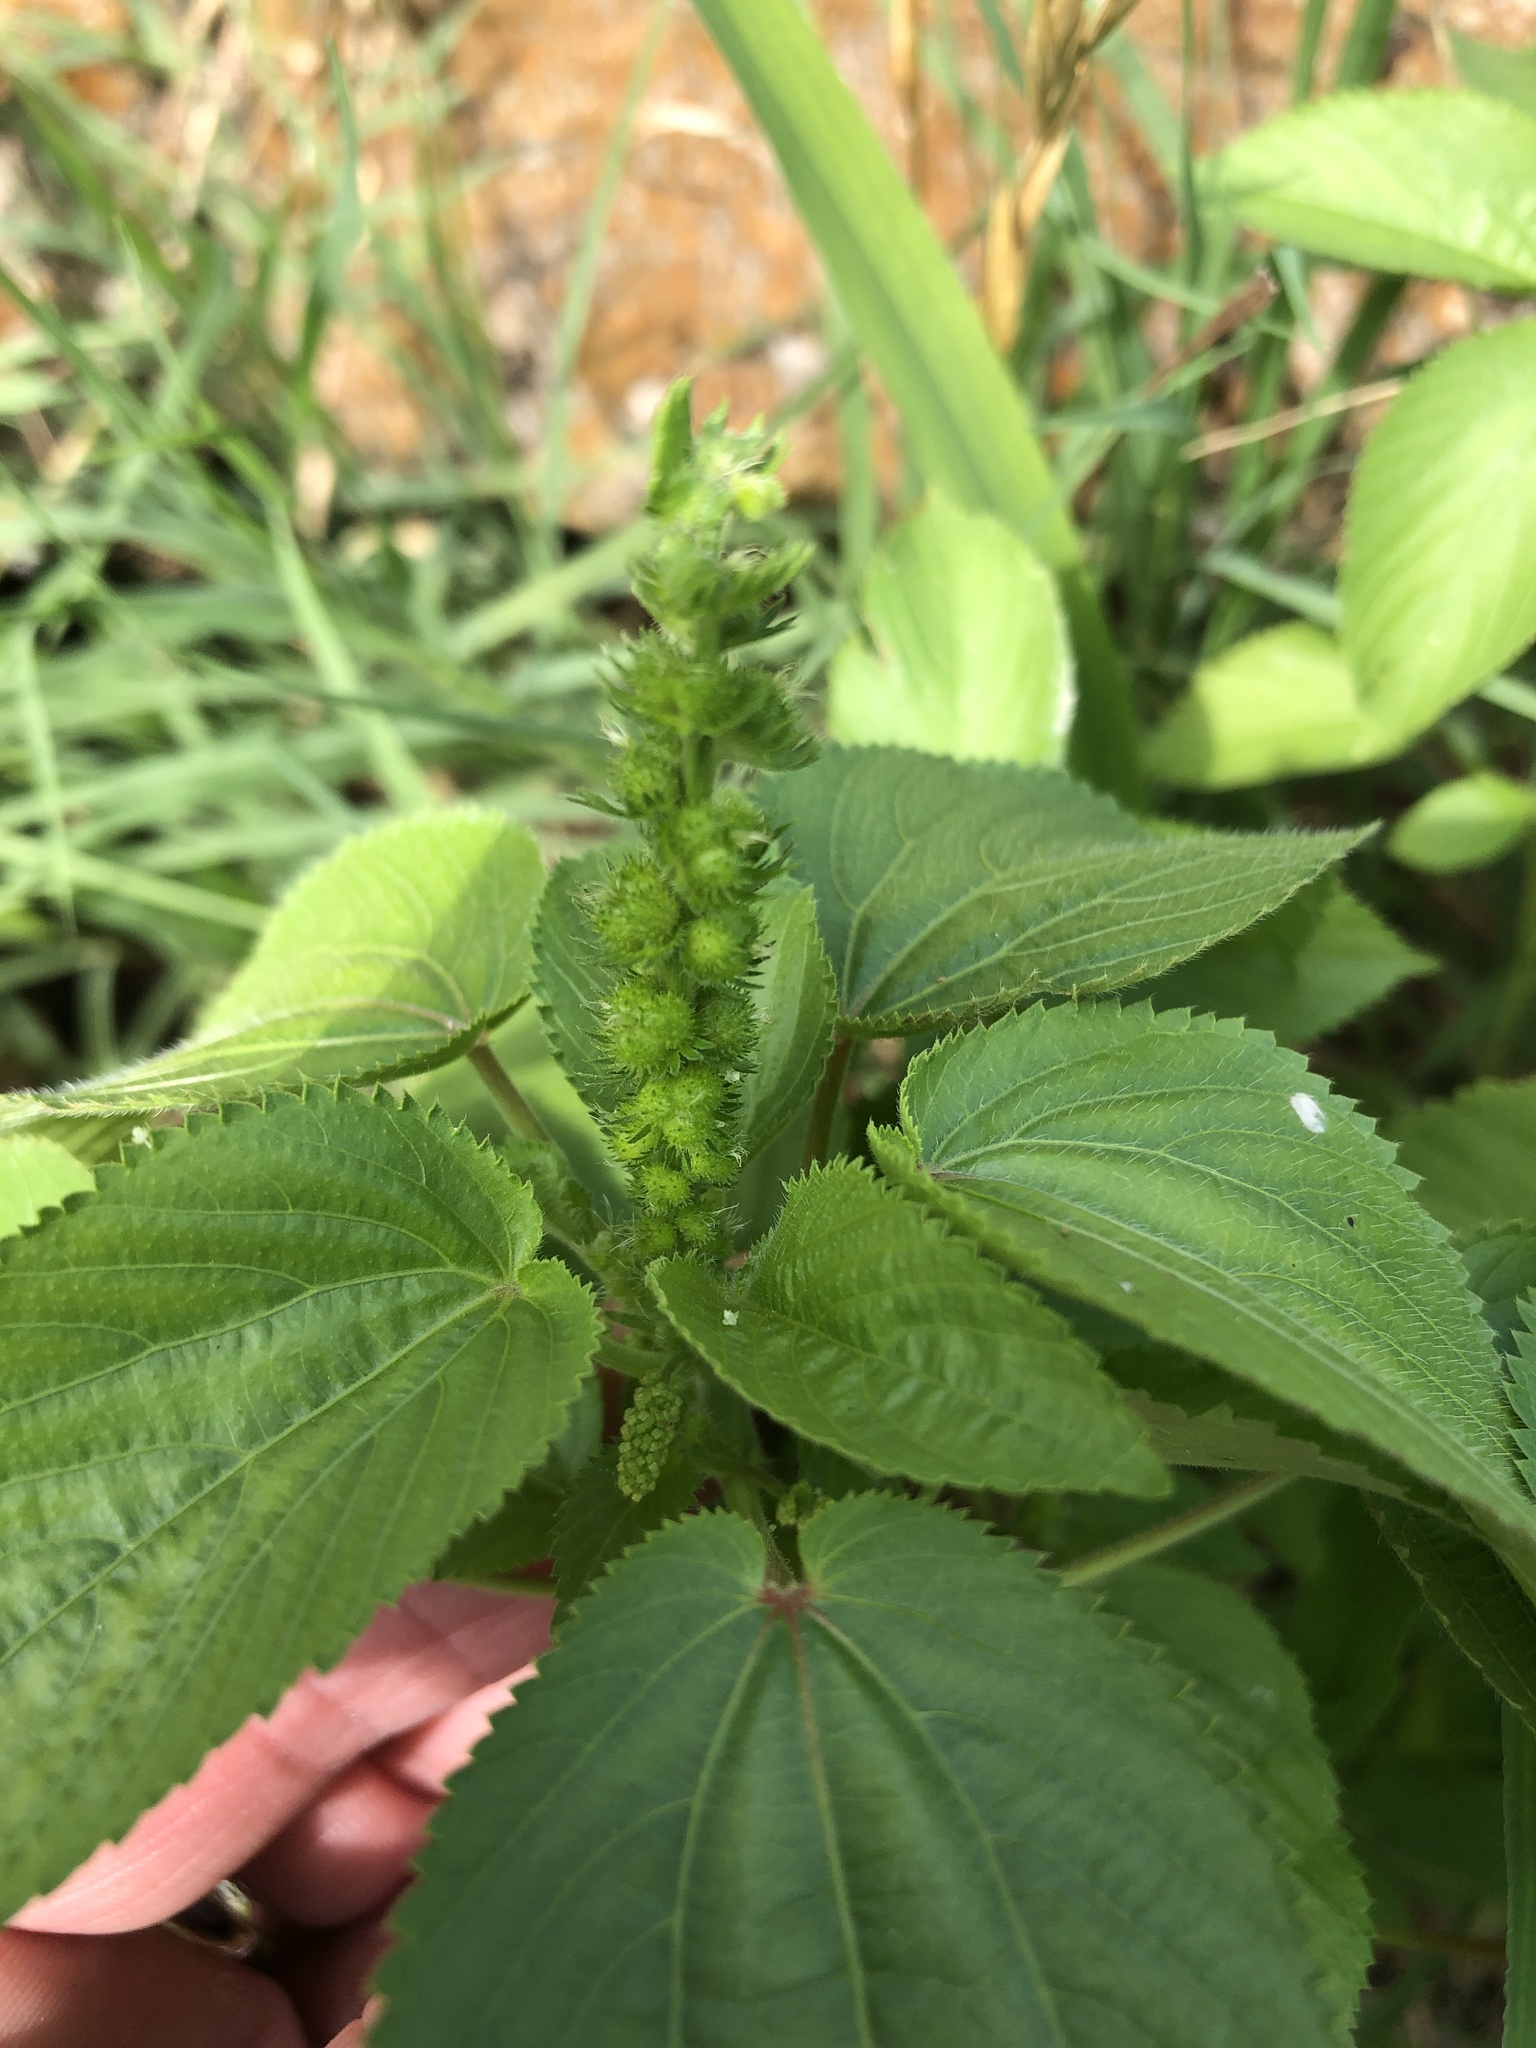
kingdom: Plantae
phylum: Tracheophyta
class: Magnoliopsida
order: Malpighiales
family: Euphorbiaceae
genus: Acalypha
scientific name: Acalypha ostryifolia
